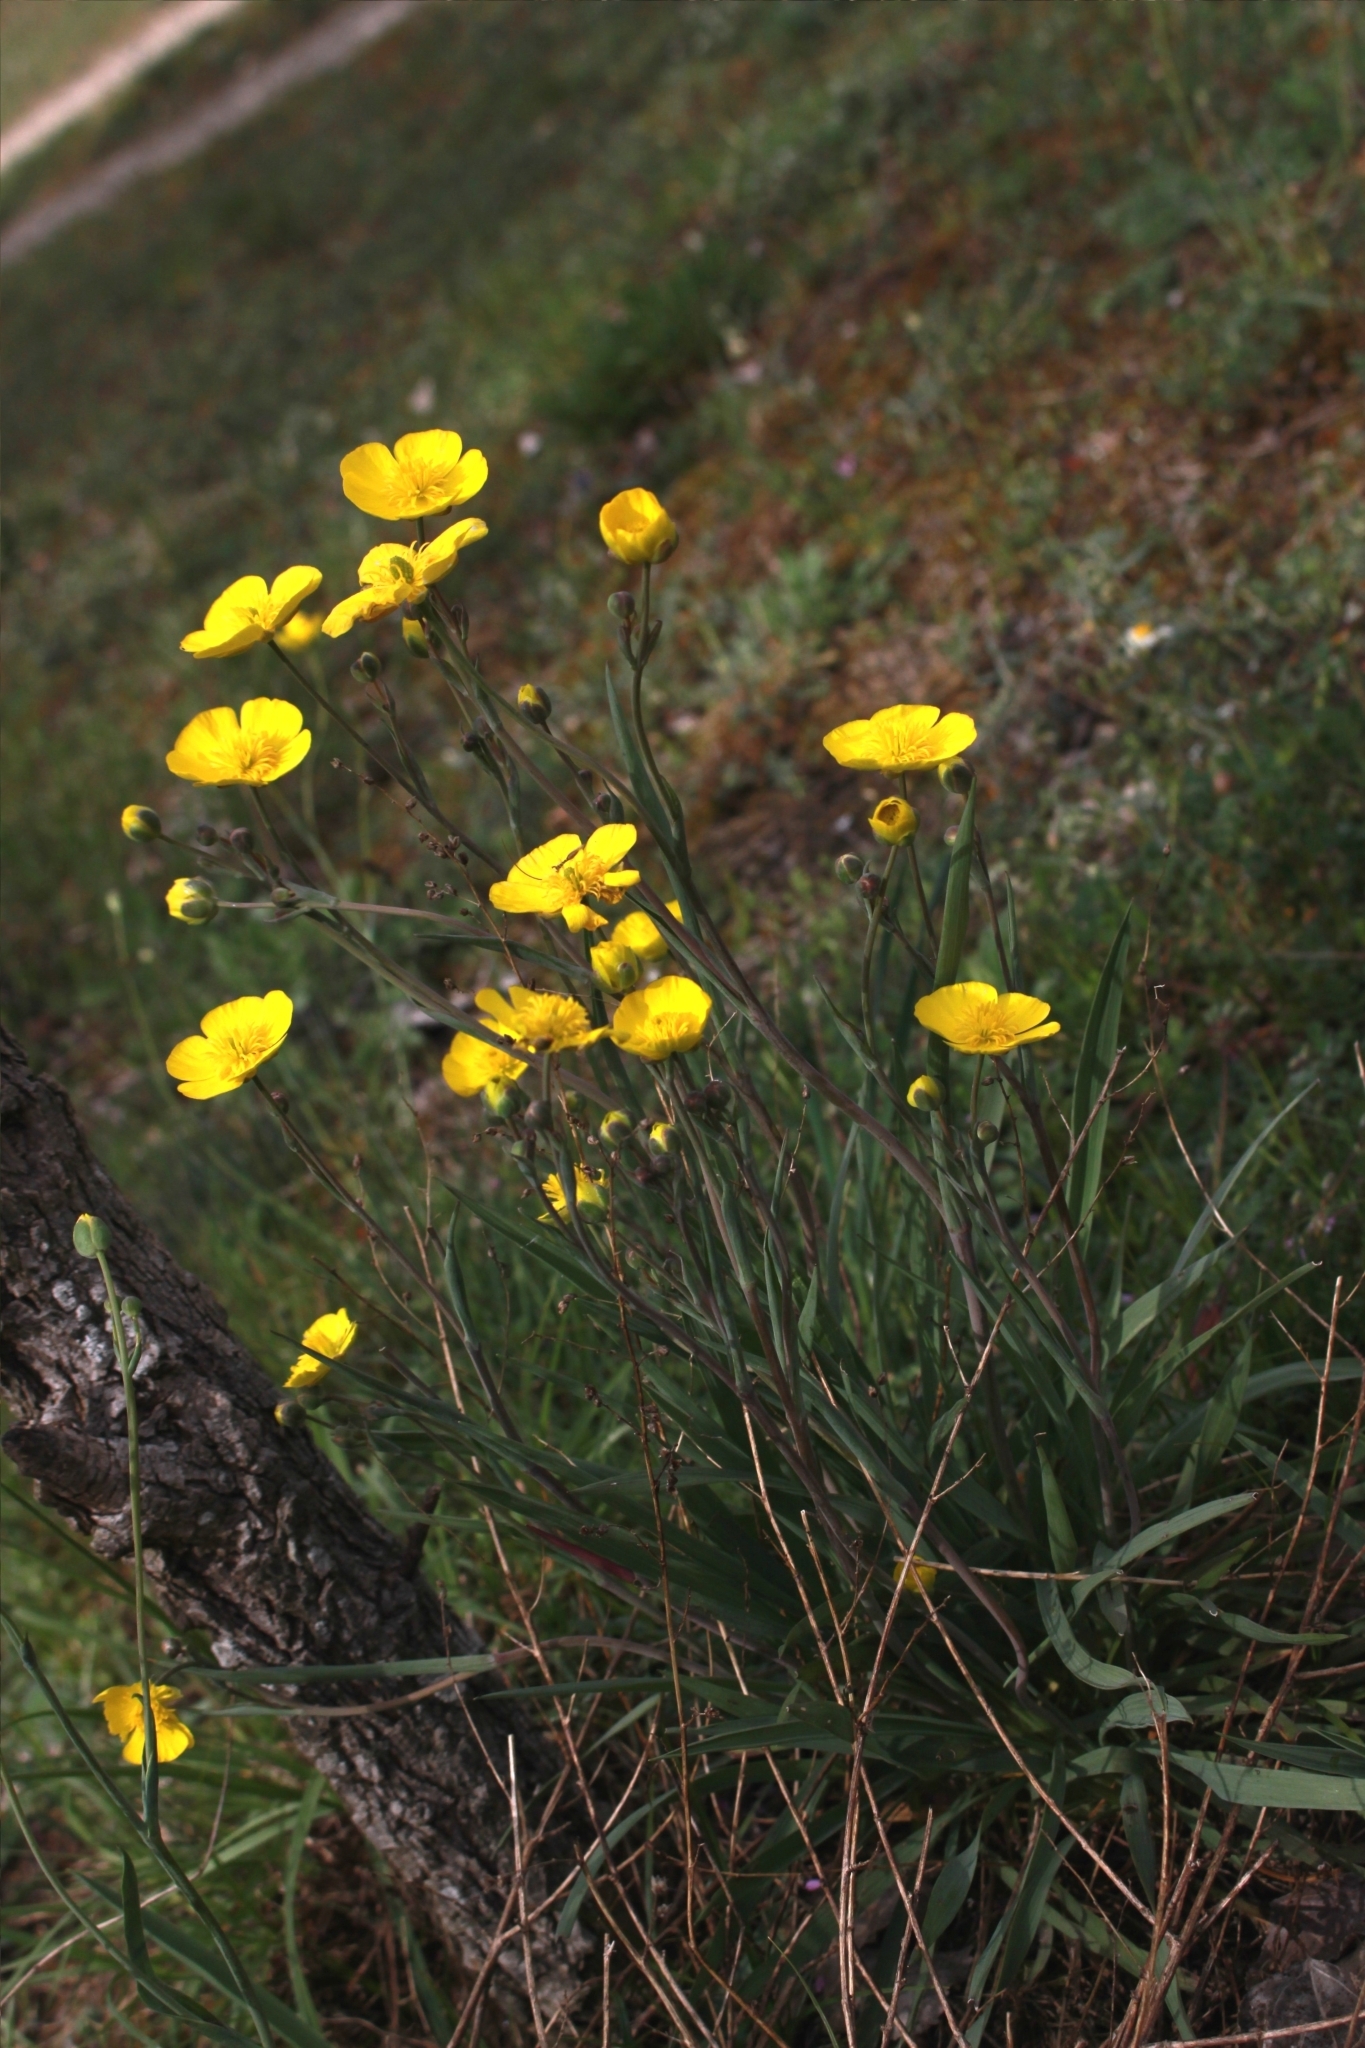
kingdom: Plantae
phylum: Tracheophyta
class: Magnoliopsida
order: Ranunculales
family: Ranunculaceae
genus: Ranunculus
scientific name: Ranunculus gramineus
